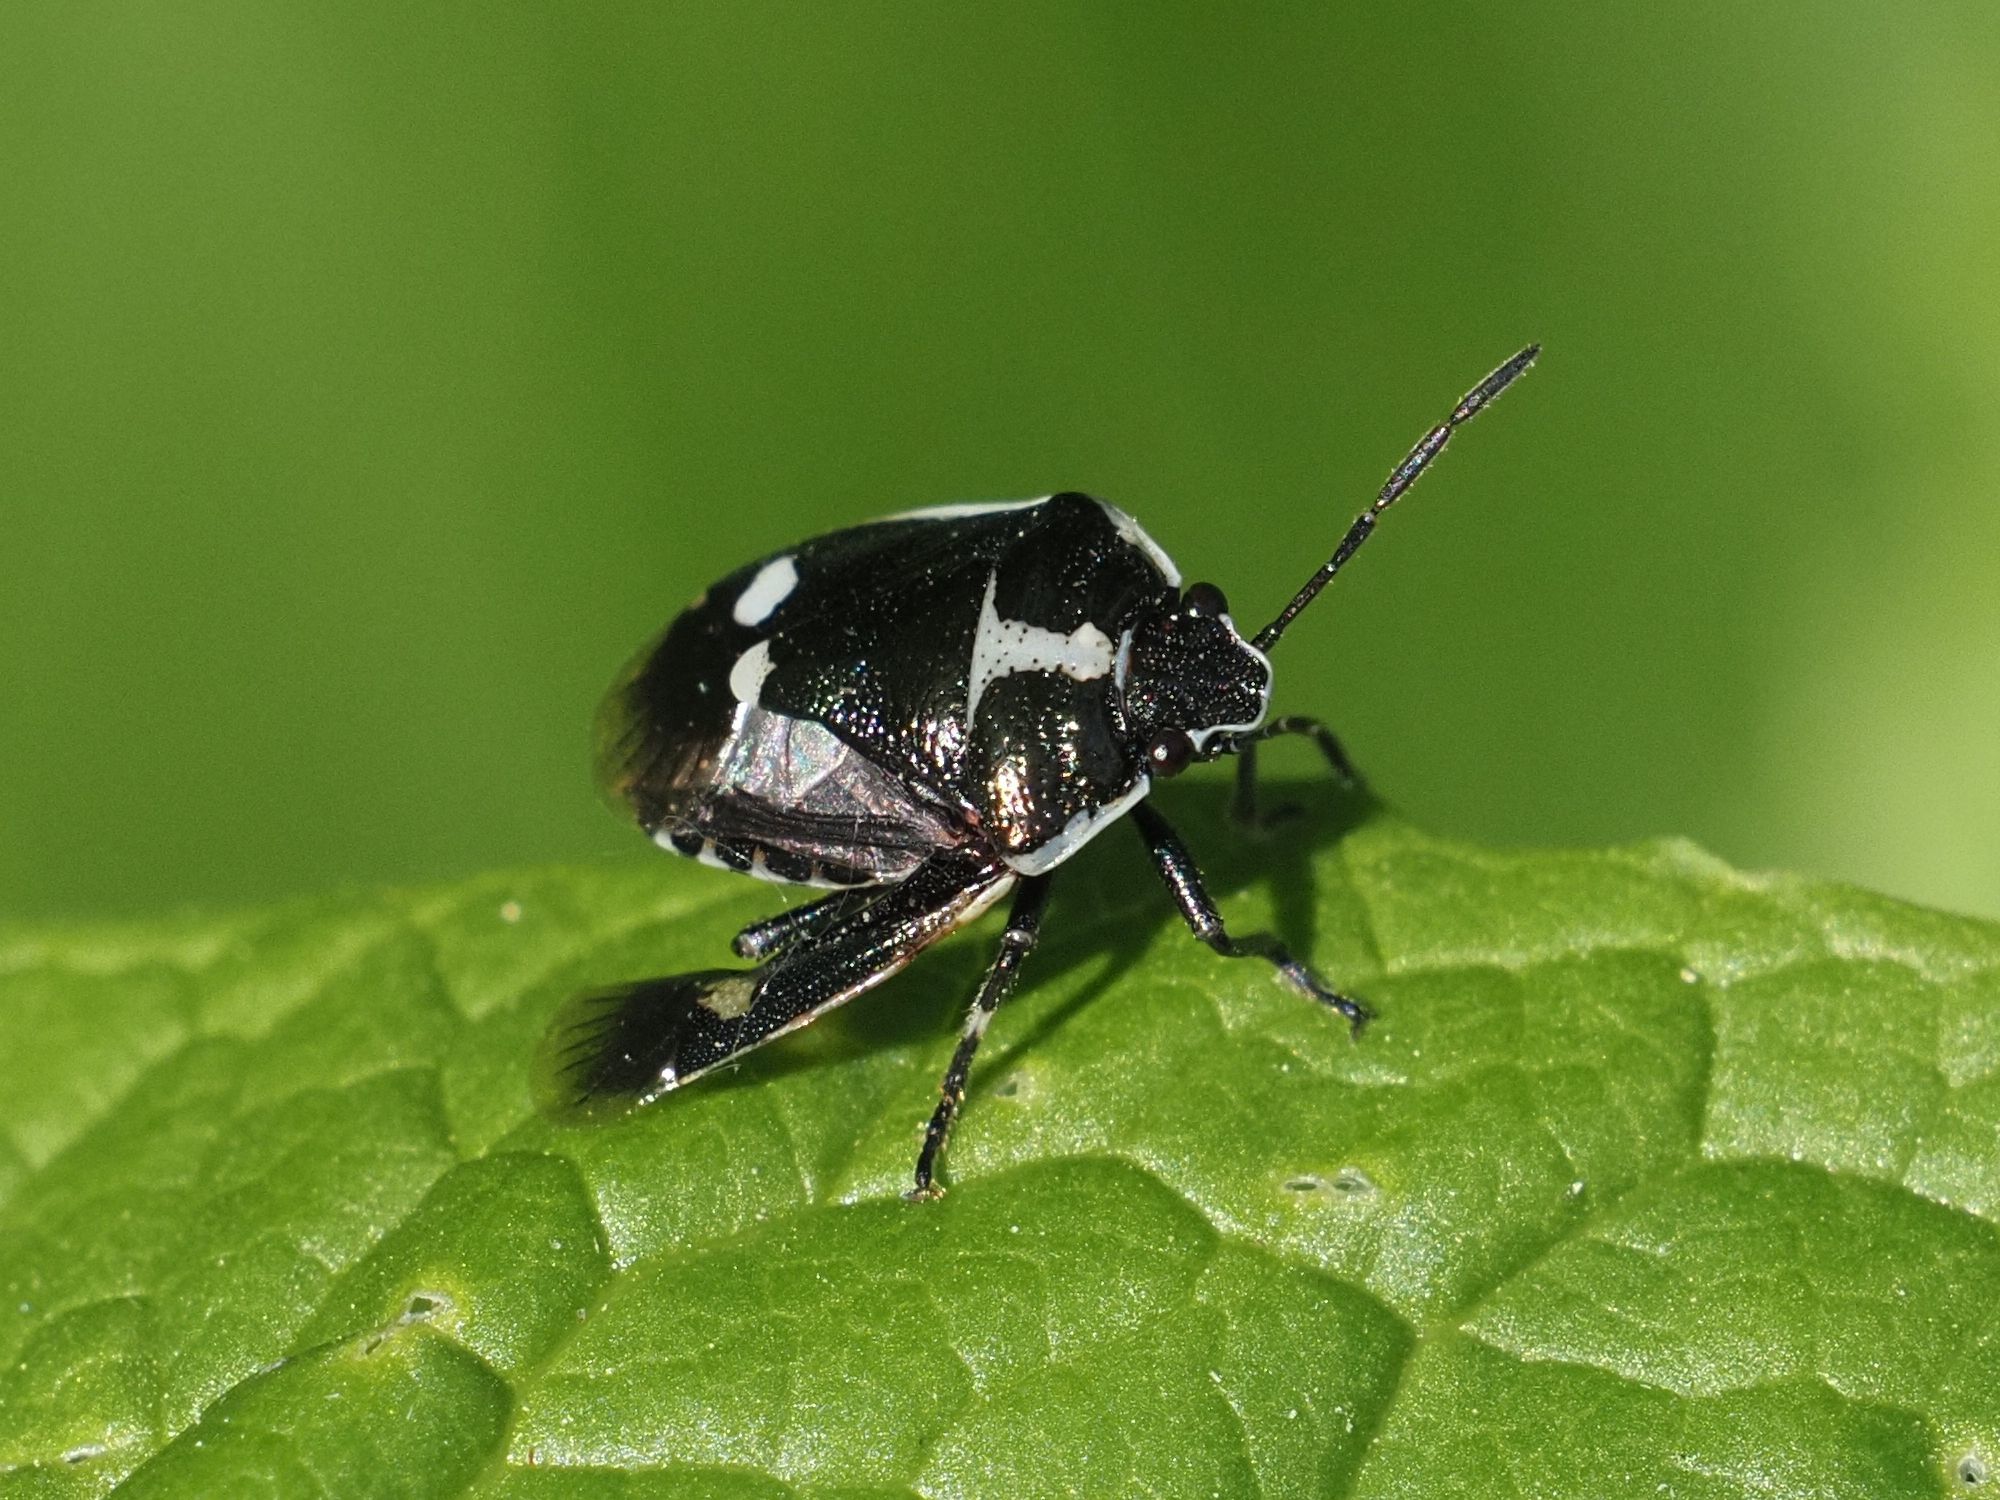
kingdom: Animalia
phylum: Arthropoda
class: Insecta
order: Hemiptera
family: Pentatomidae
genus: Eurydema
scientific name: Eurydema oleracea
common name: Cabbage bug
